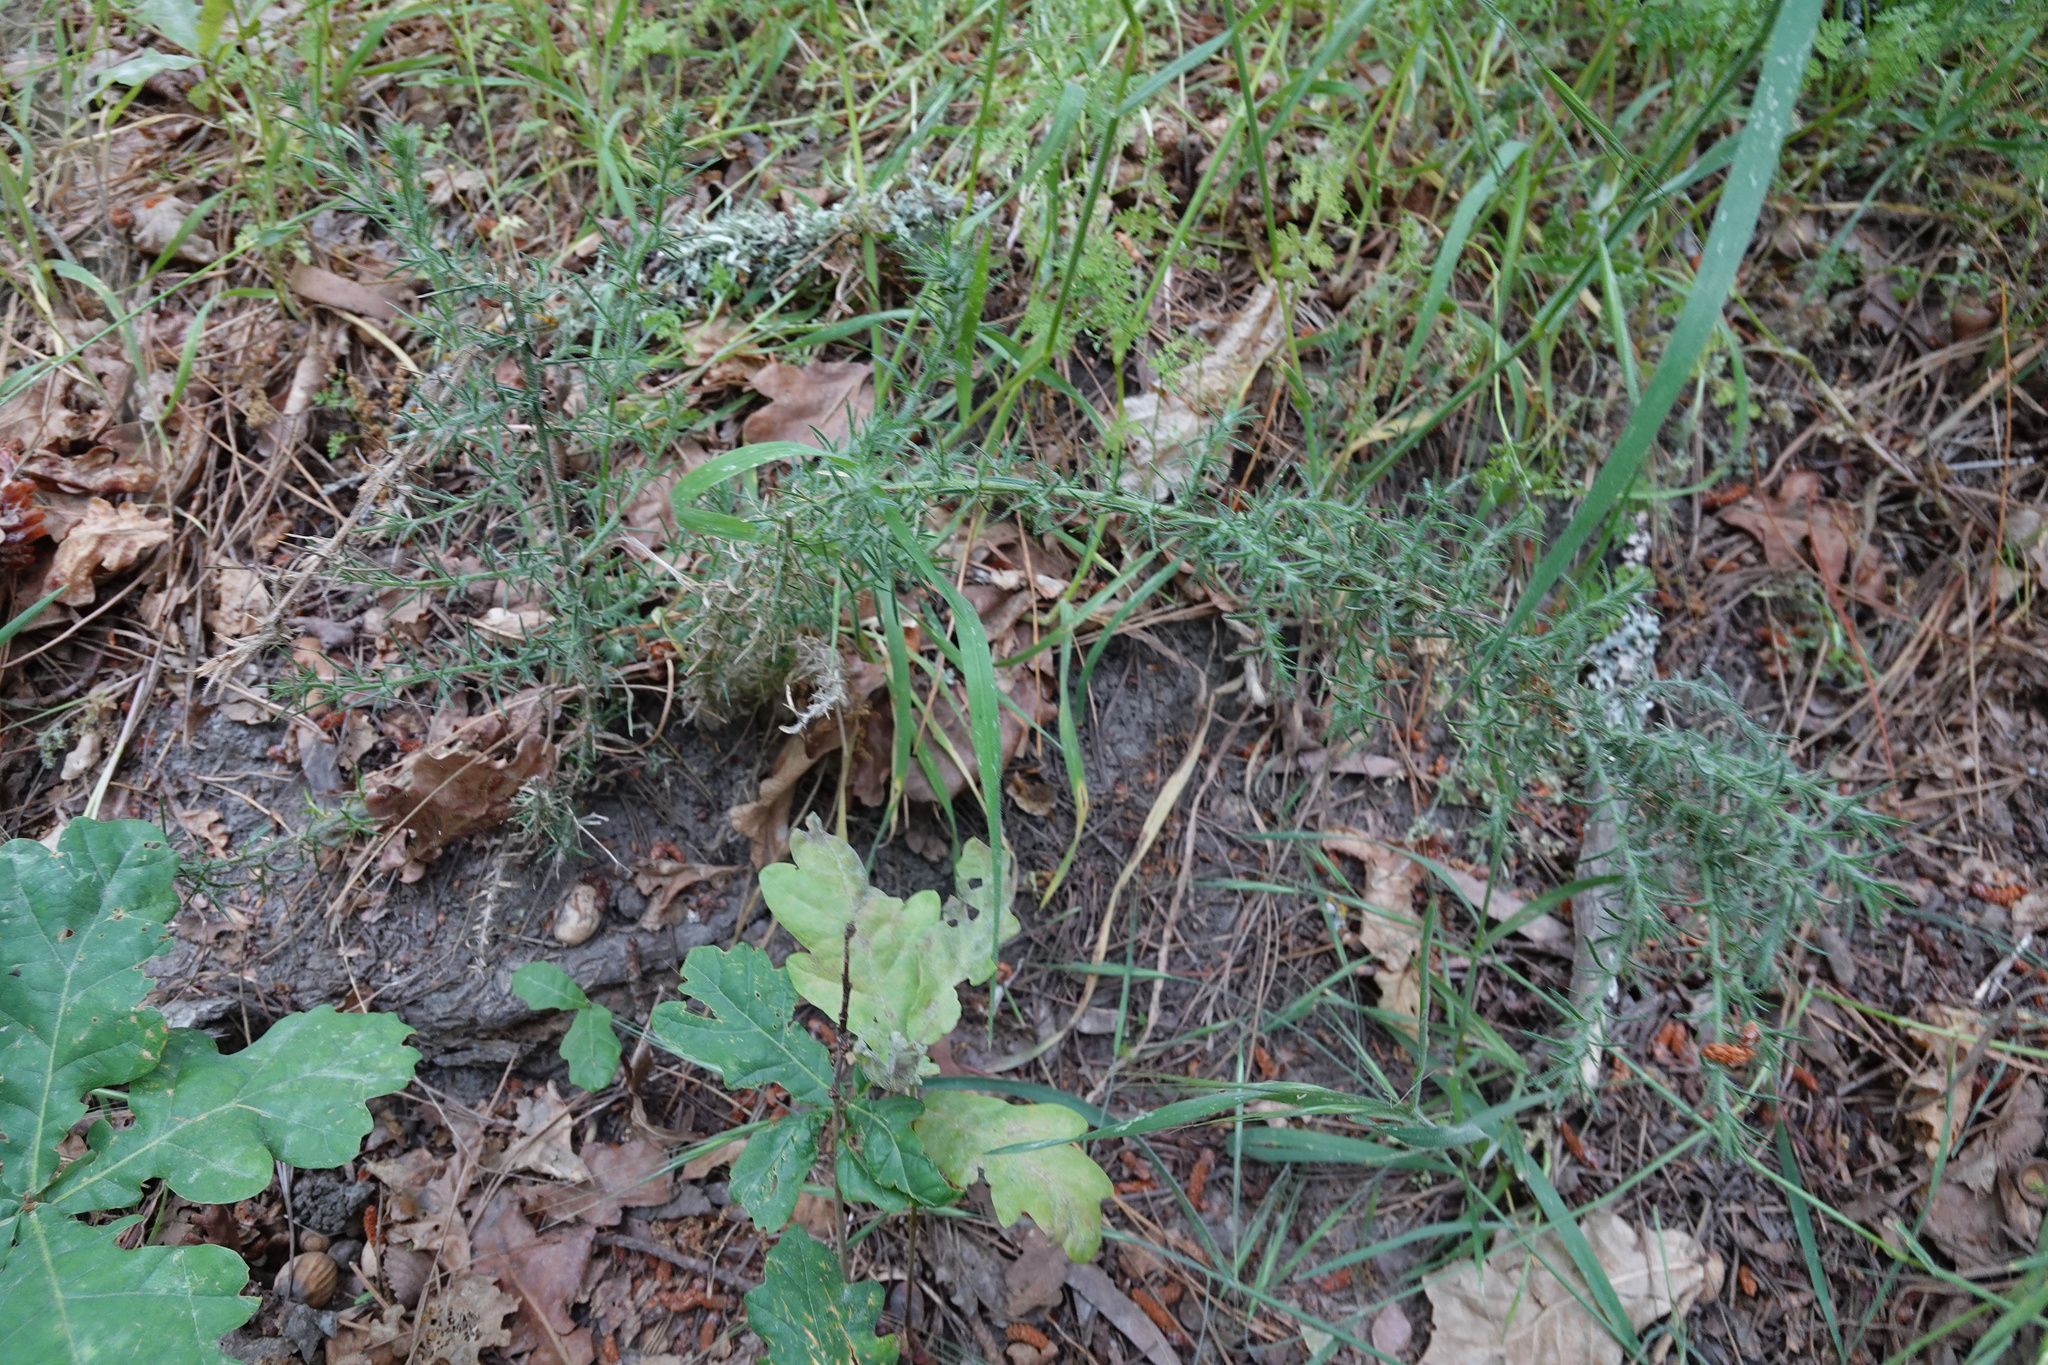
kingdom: Plantae
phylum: Tracheophyta
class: Magnoliopsida
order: Fabales
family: Fabaceae
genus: Ulex
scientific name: Ulex europaeus
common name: Common gorse
